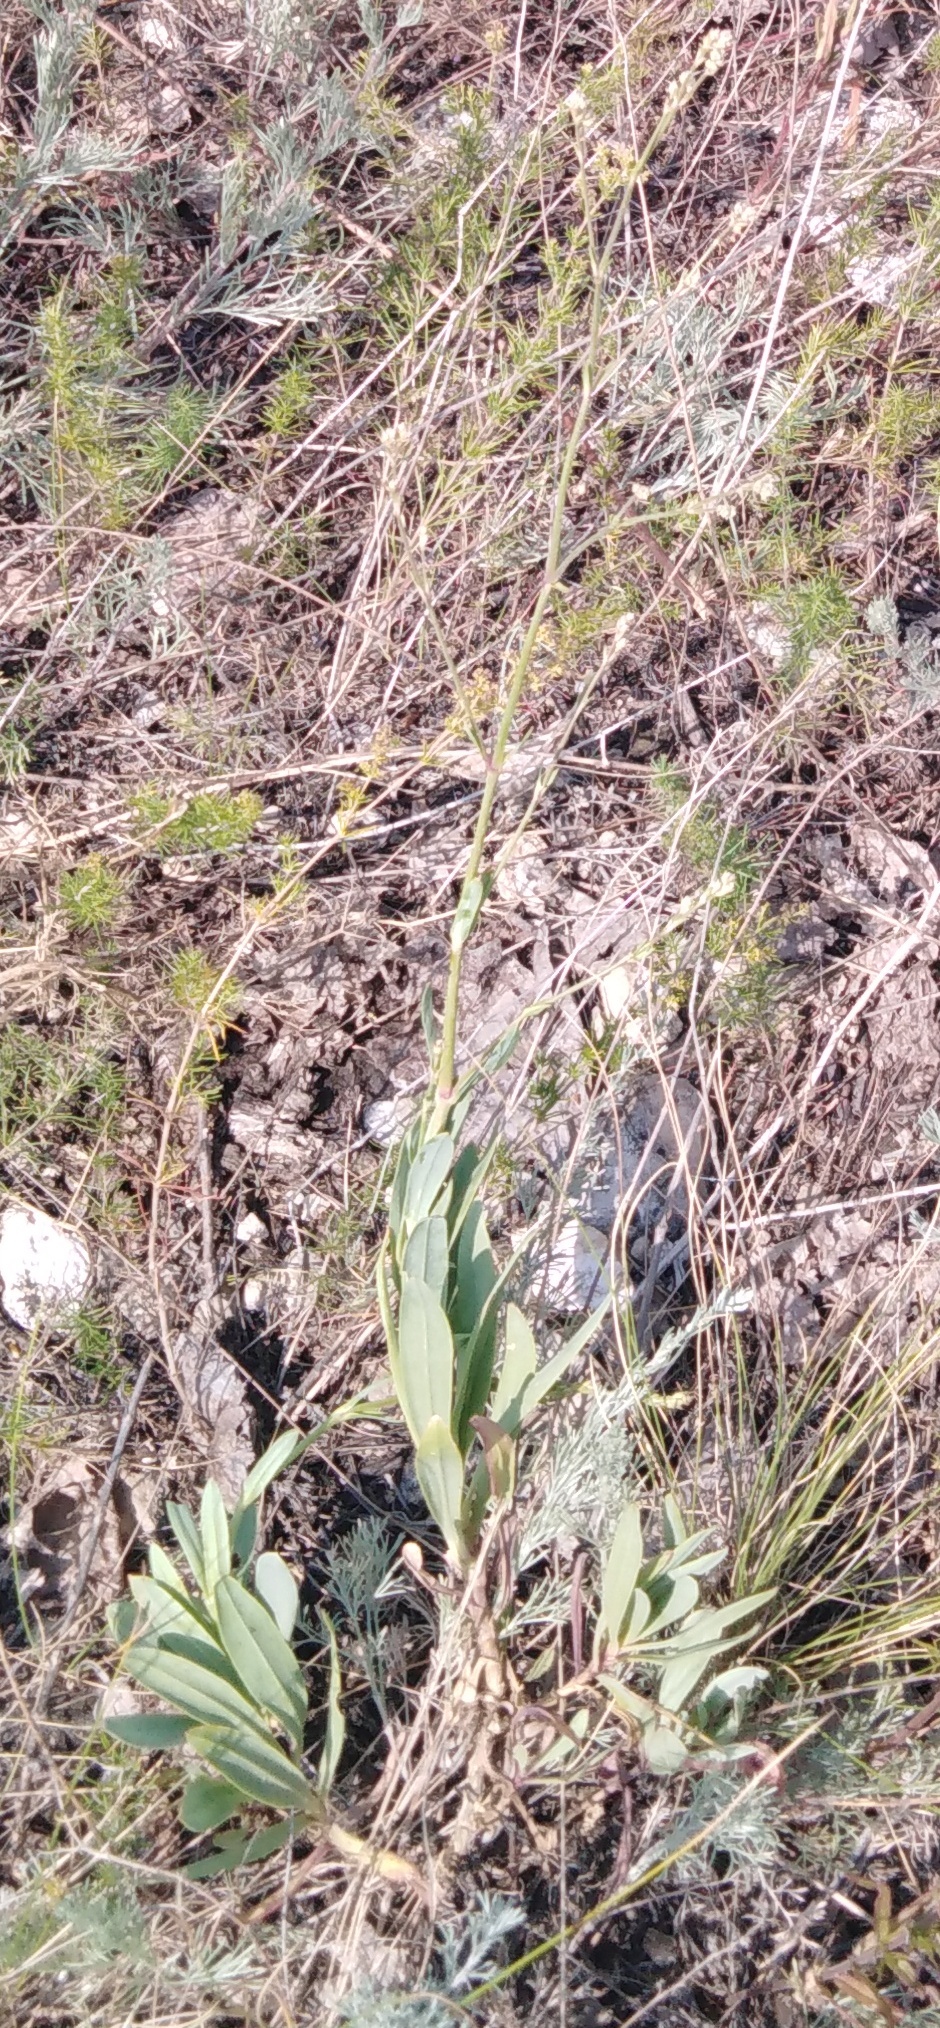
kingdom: Plantae
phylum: Tracheophyta
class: Magnoliopsida
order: Caryophyllales
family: Caryophyllaceae
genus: Gypsophila
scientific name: Gypsophila altissima
